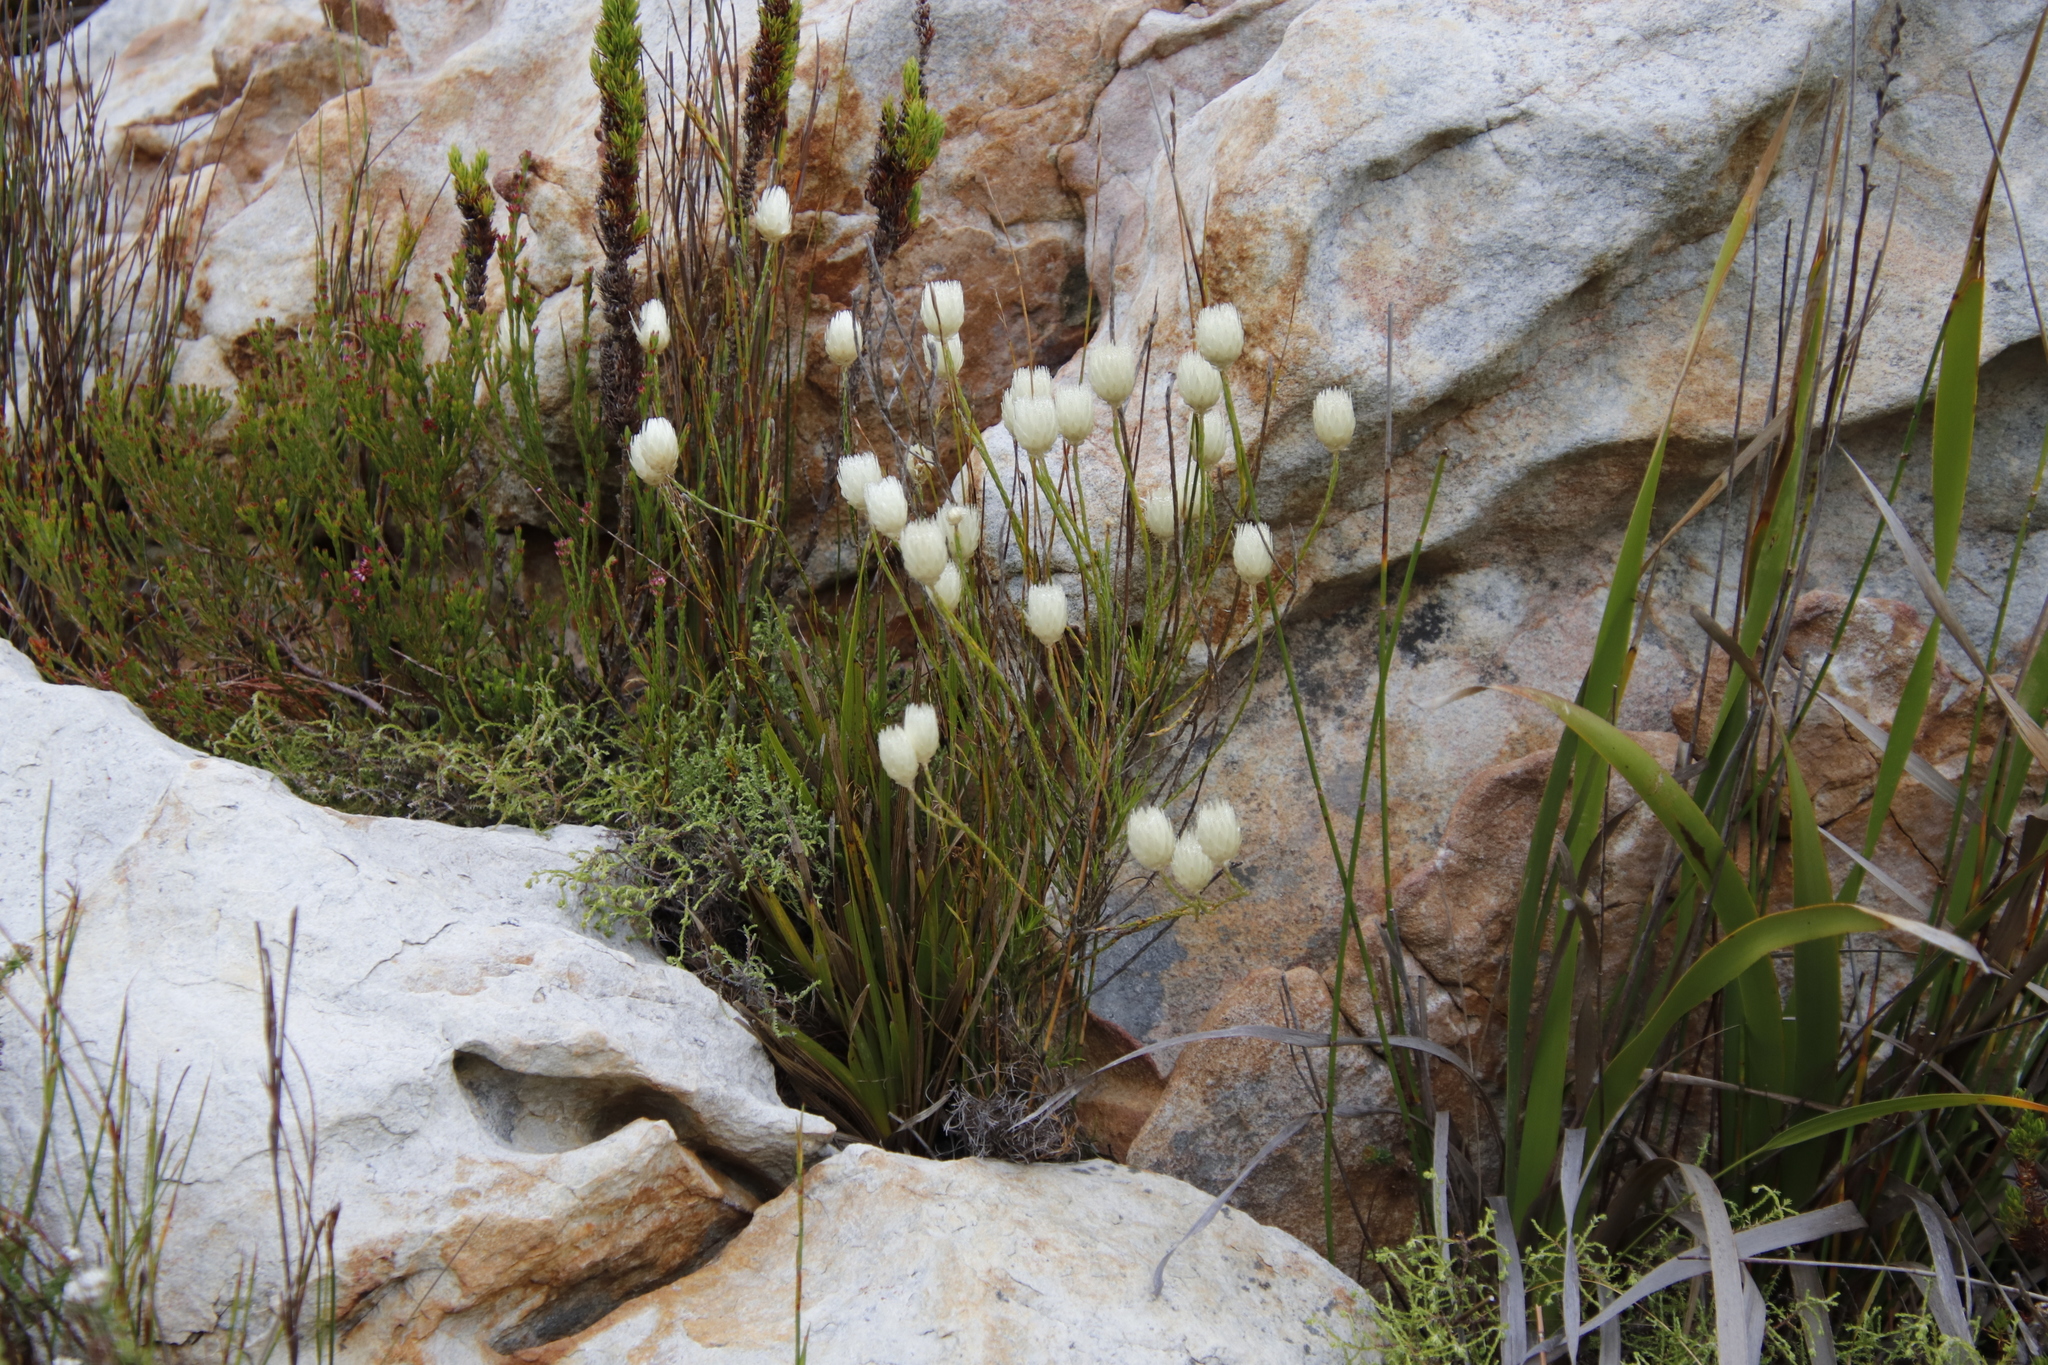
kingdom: Plantae
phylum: Tracheophyta
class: Magnoliopsida
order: Asterales
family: Asteraceae
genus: Edmondia
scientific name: Edmondia sesamoides
